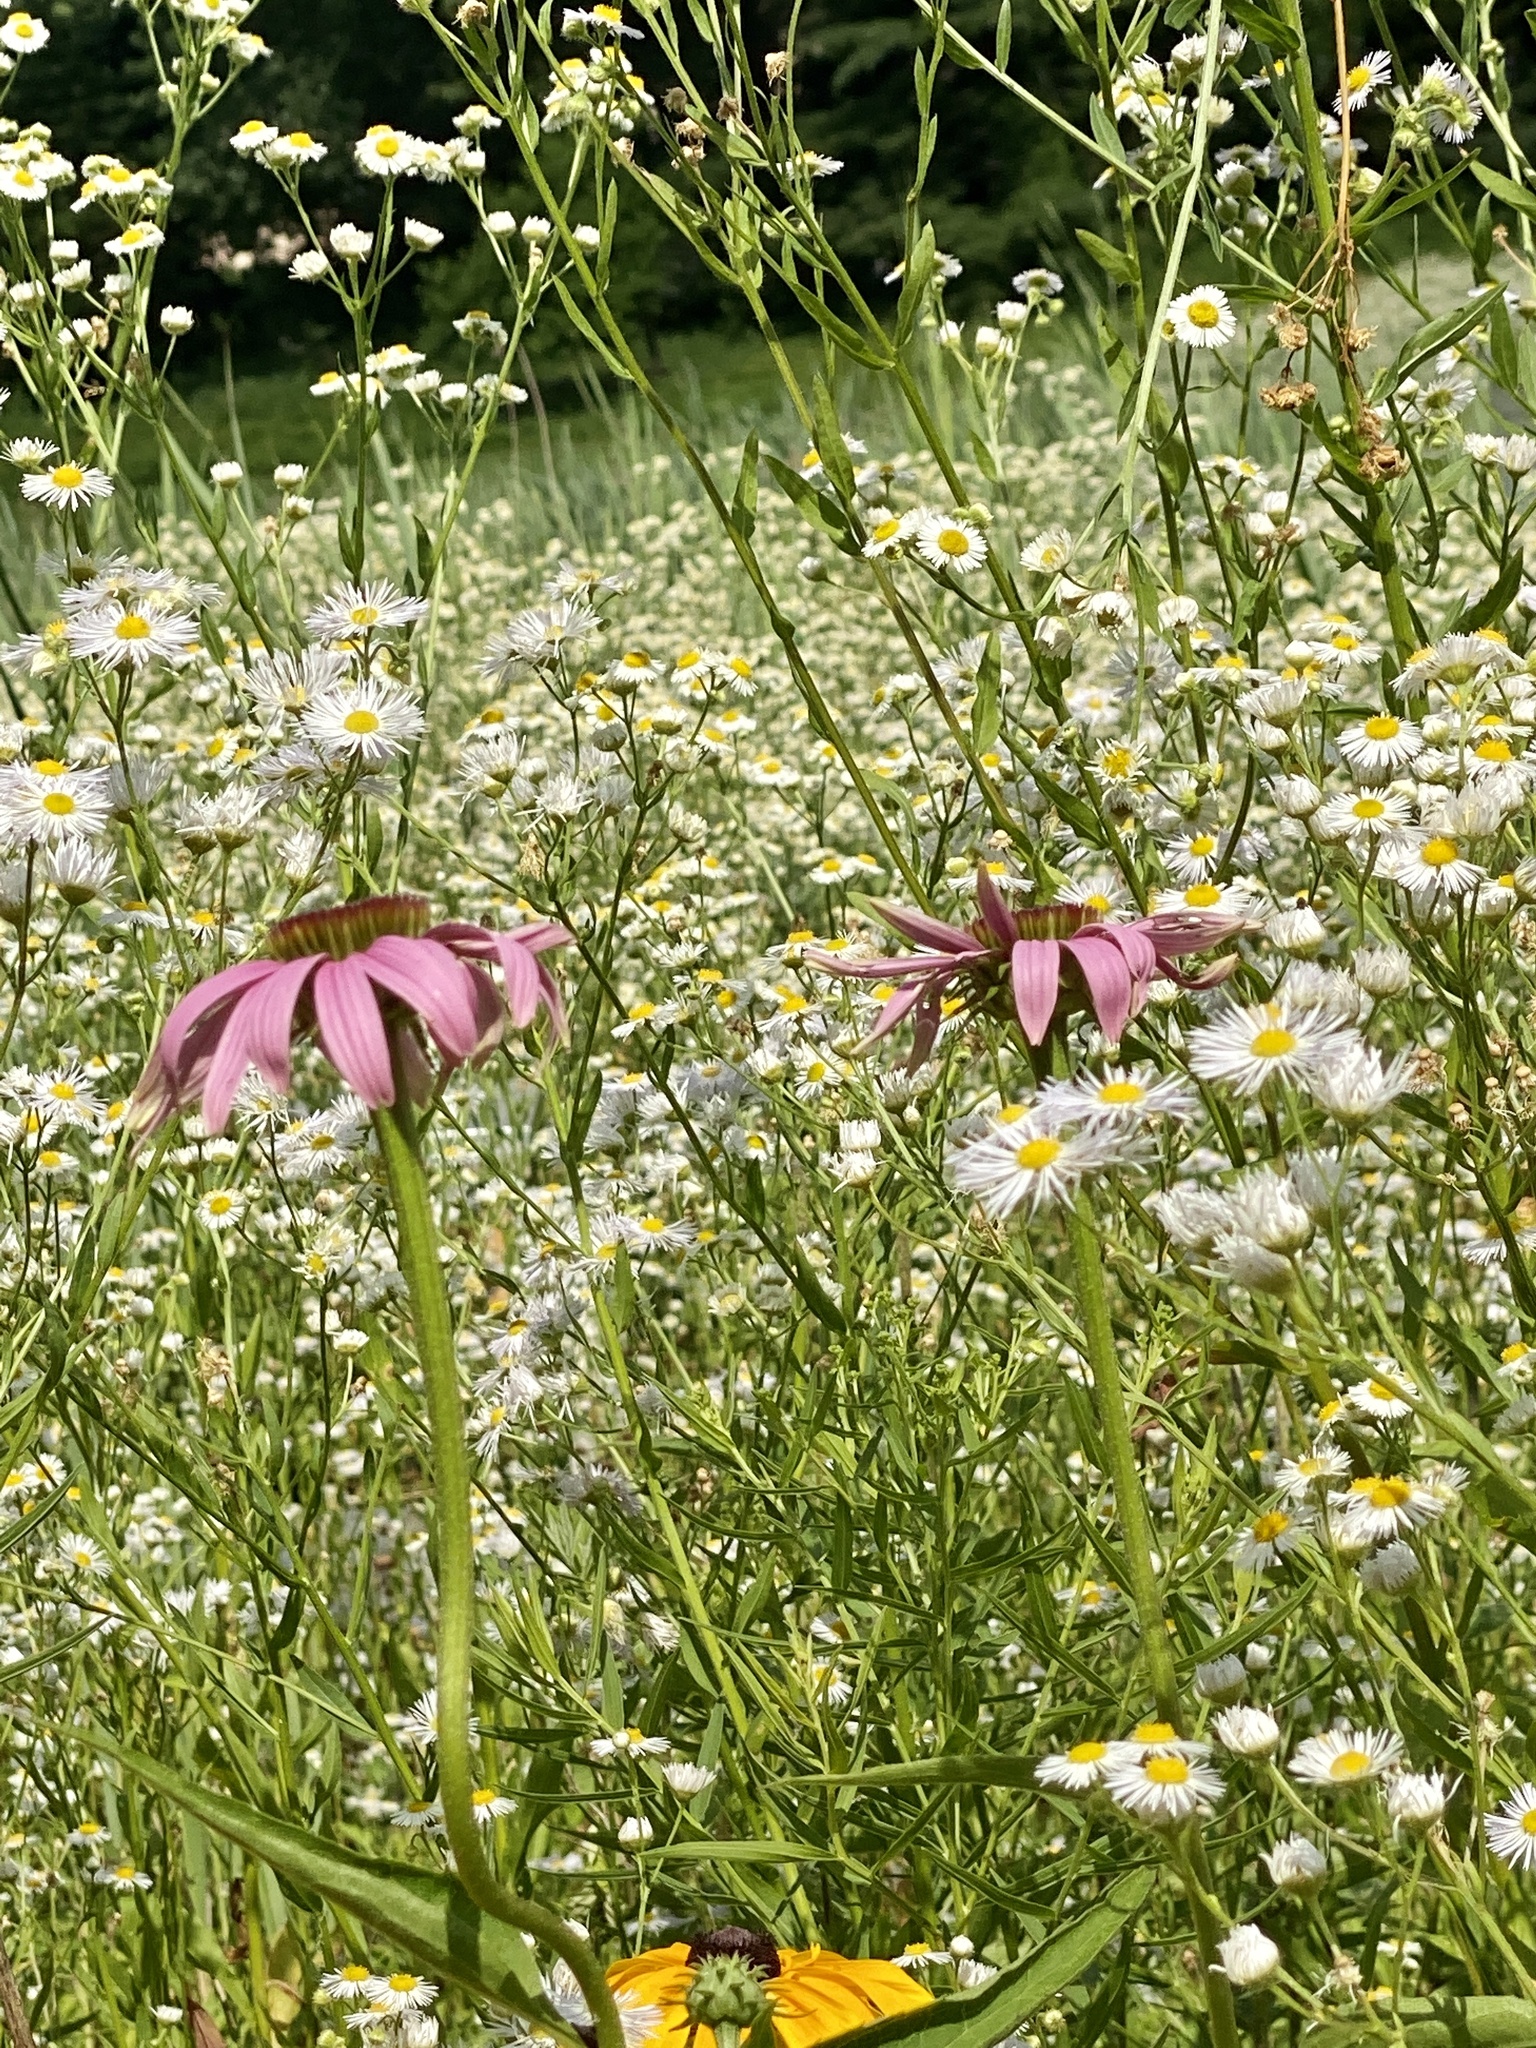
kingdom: Plantae
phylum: Tracheophyta
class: Magnoliopsida
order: Asterales
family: Asteraceae
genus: Echinacea
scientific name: Echinacea purpurea
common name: Broad-leaved purple coneflower
